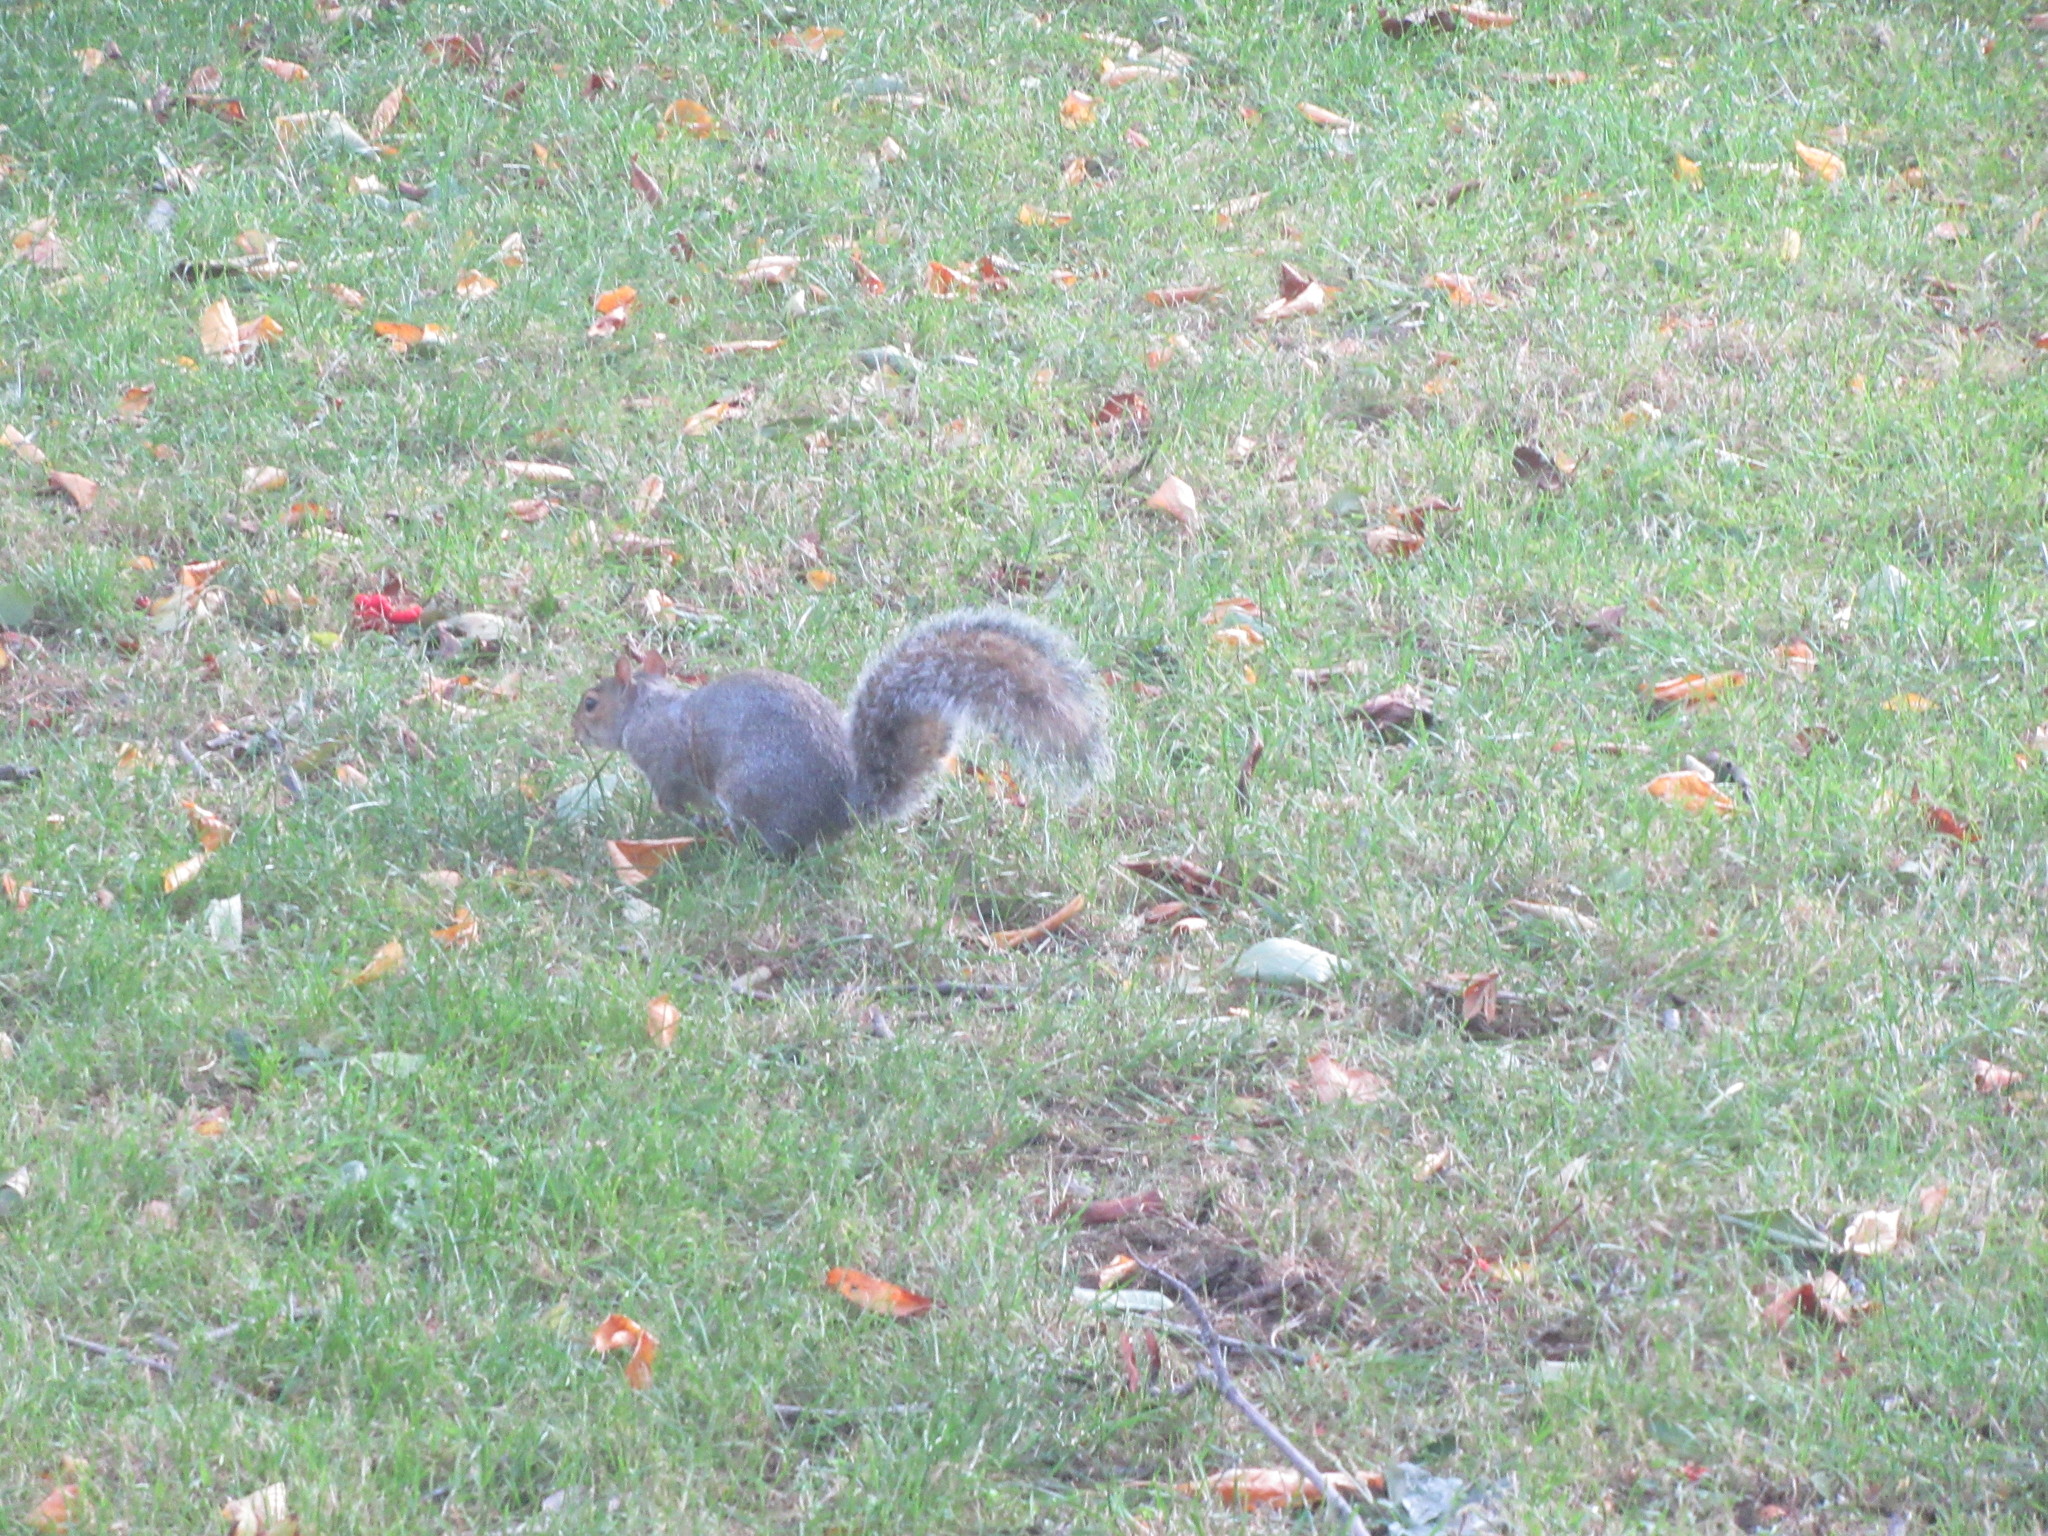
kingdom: Animalia
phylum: Chordata
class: Mammalia
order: Rodentia
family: Sciuridae
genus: Sciurus
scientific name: Sciurus carolinensis
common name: Eastern gray squirrel
